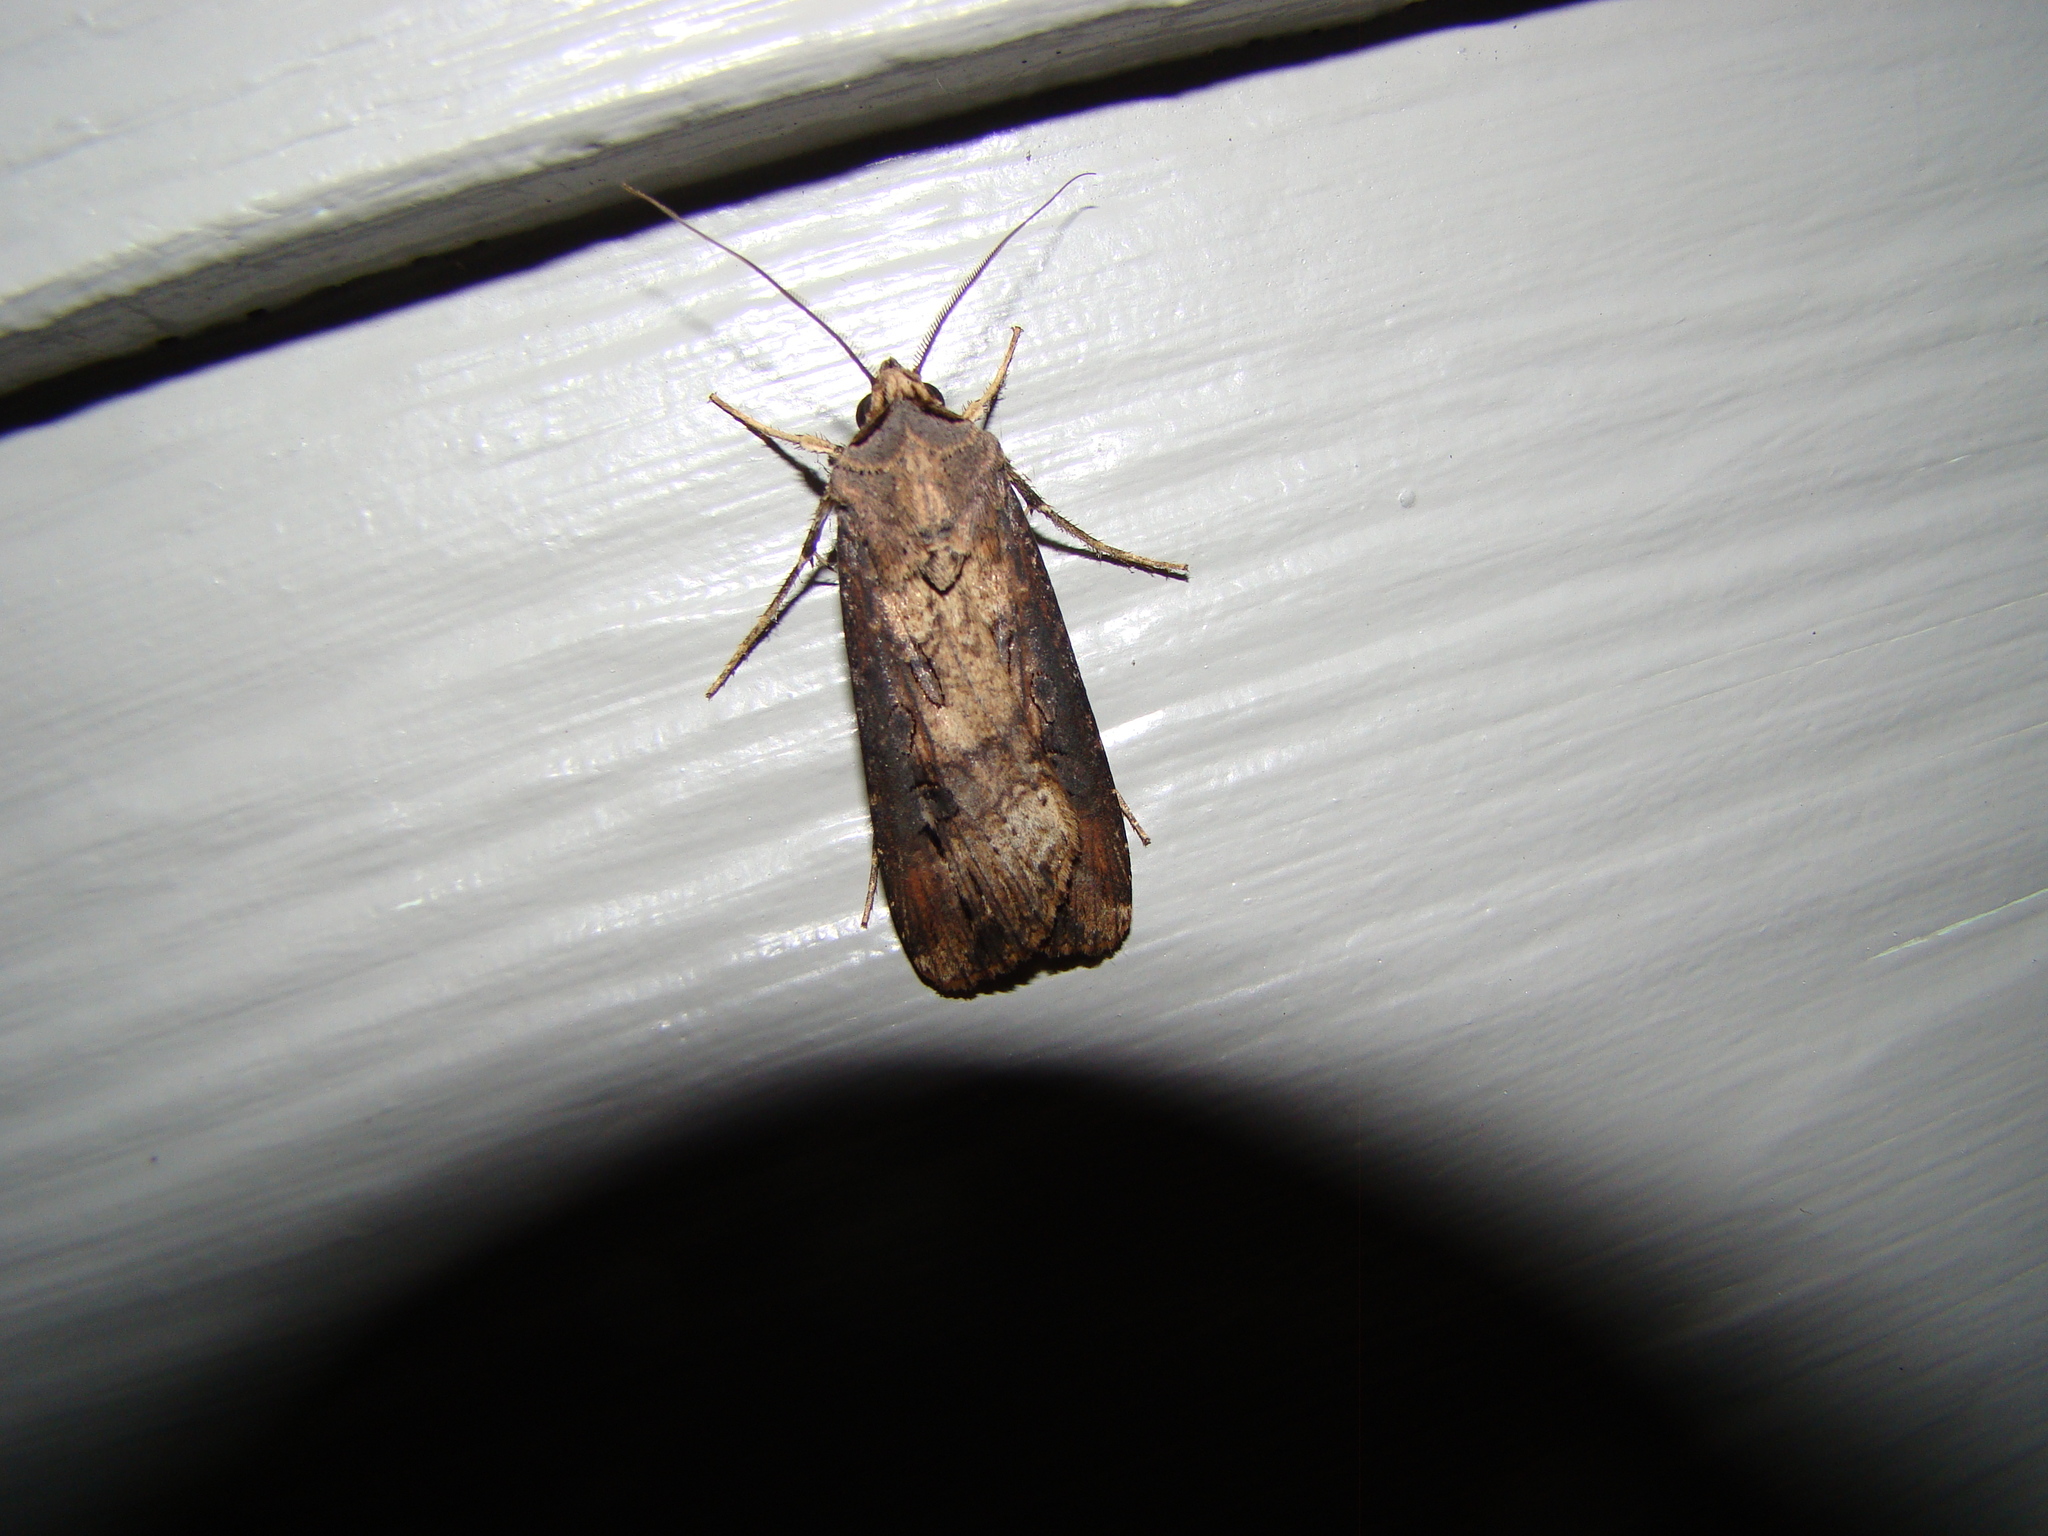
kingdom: Animalia
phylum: Arthropoda
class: Insecta
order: Lepidoptera
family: Noctuidae
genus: Agrotis
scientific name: Agrotis ipsilon
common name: Dark sword-grass
